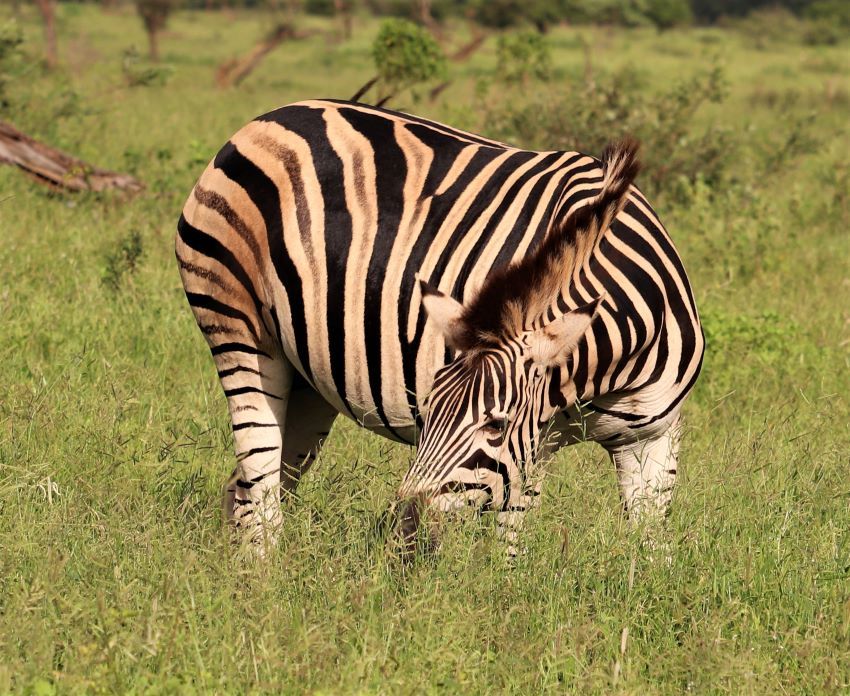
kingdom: Animalia
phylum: Chordata
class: Mammalia
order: Perissodactyla
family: Equidae
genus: Equus
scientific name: Equus quagga
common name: Plains zebra
